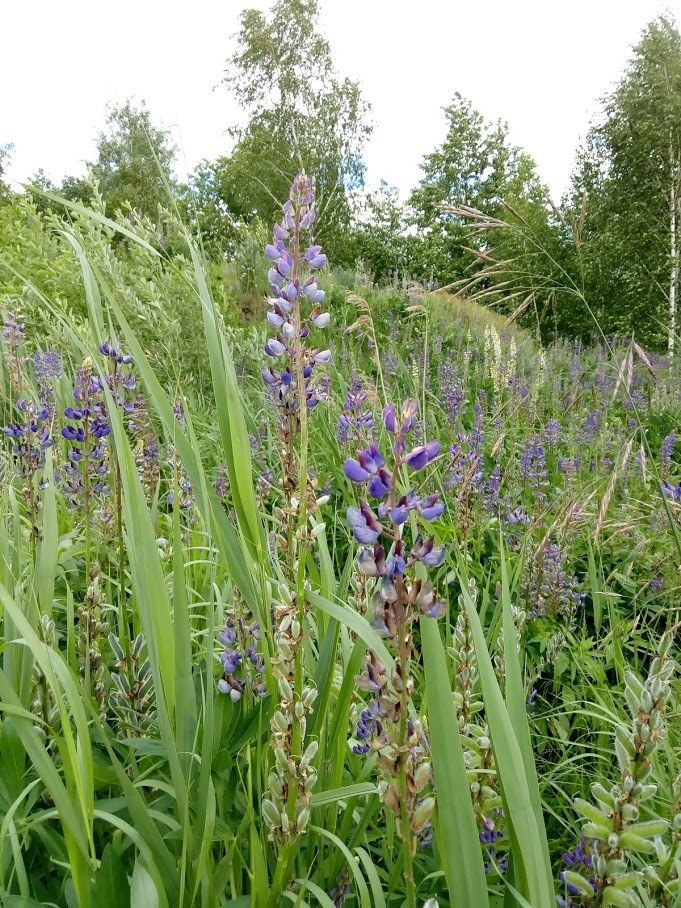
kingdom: Plantae
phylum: Tracheophyta
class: Magnoliopsida
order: Fabales
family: Fabaceae
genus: Lupinus
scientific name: Lupinus polyphyllus
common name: Garden lupin
